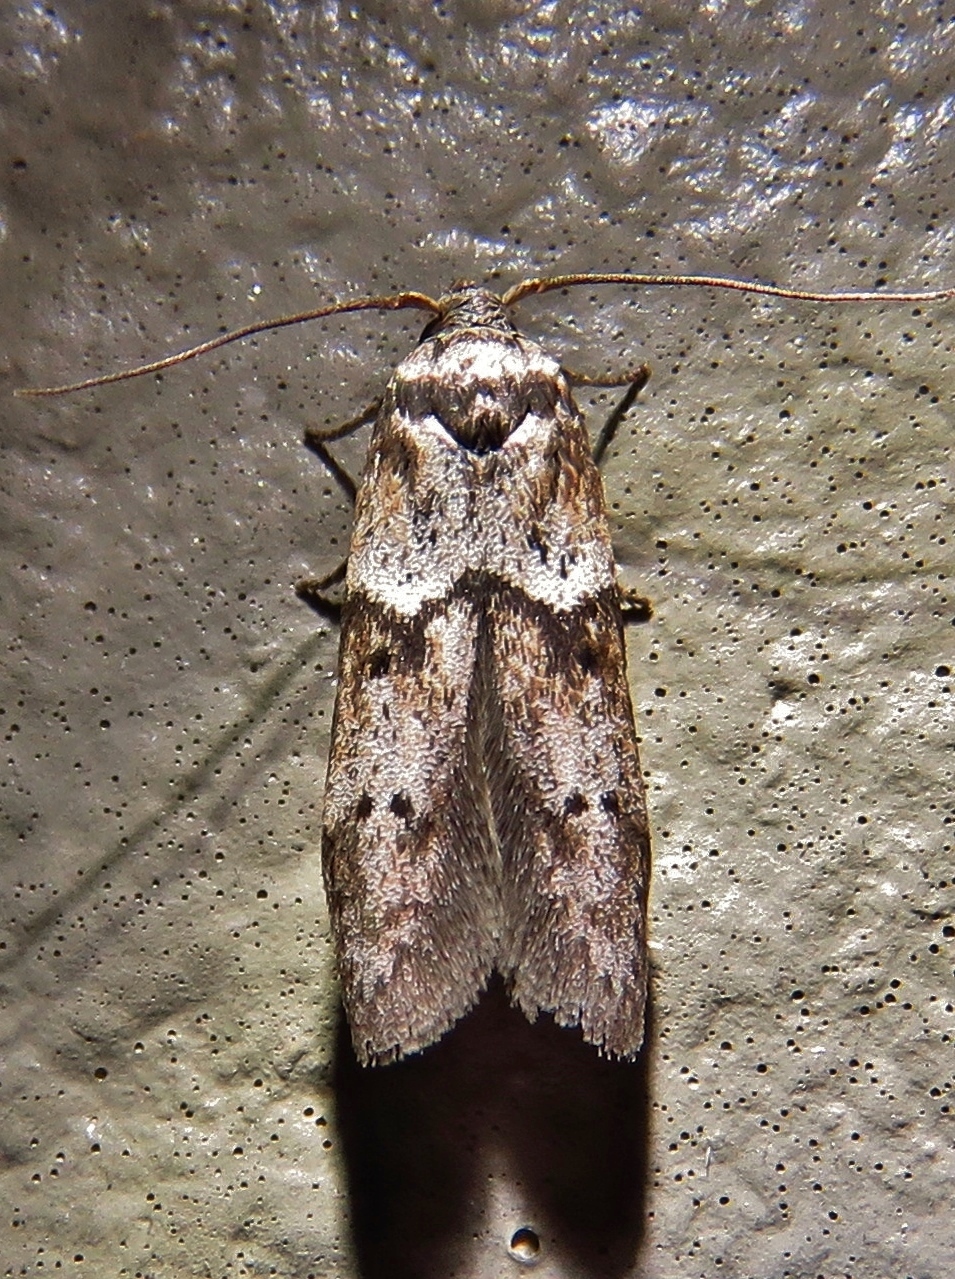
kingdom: Animalia
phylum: Arthropoda
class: Insecta
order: Lepidoptera
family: Blastobasidae
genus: Blastobasis
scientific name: Blastobasis glandulella
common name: Acorn moth
